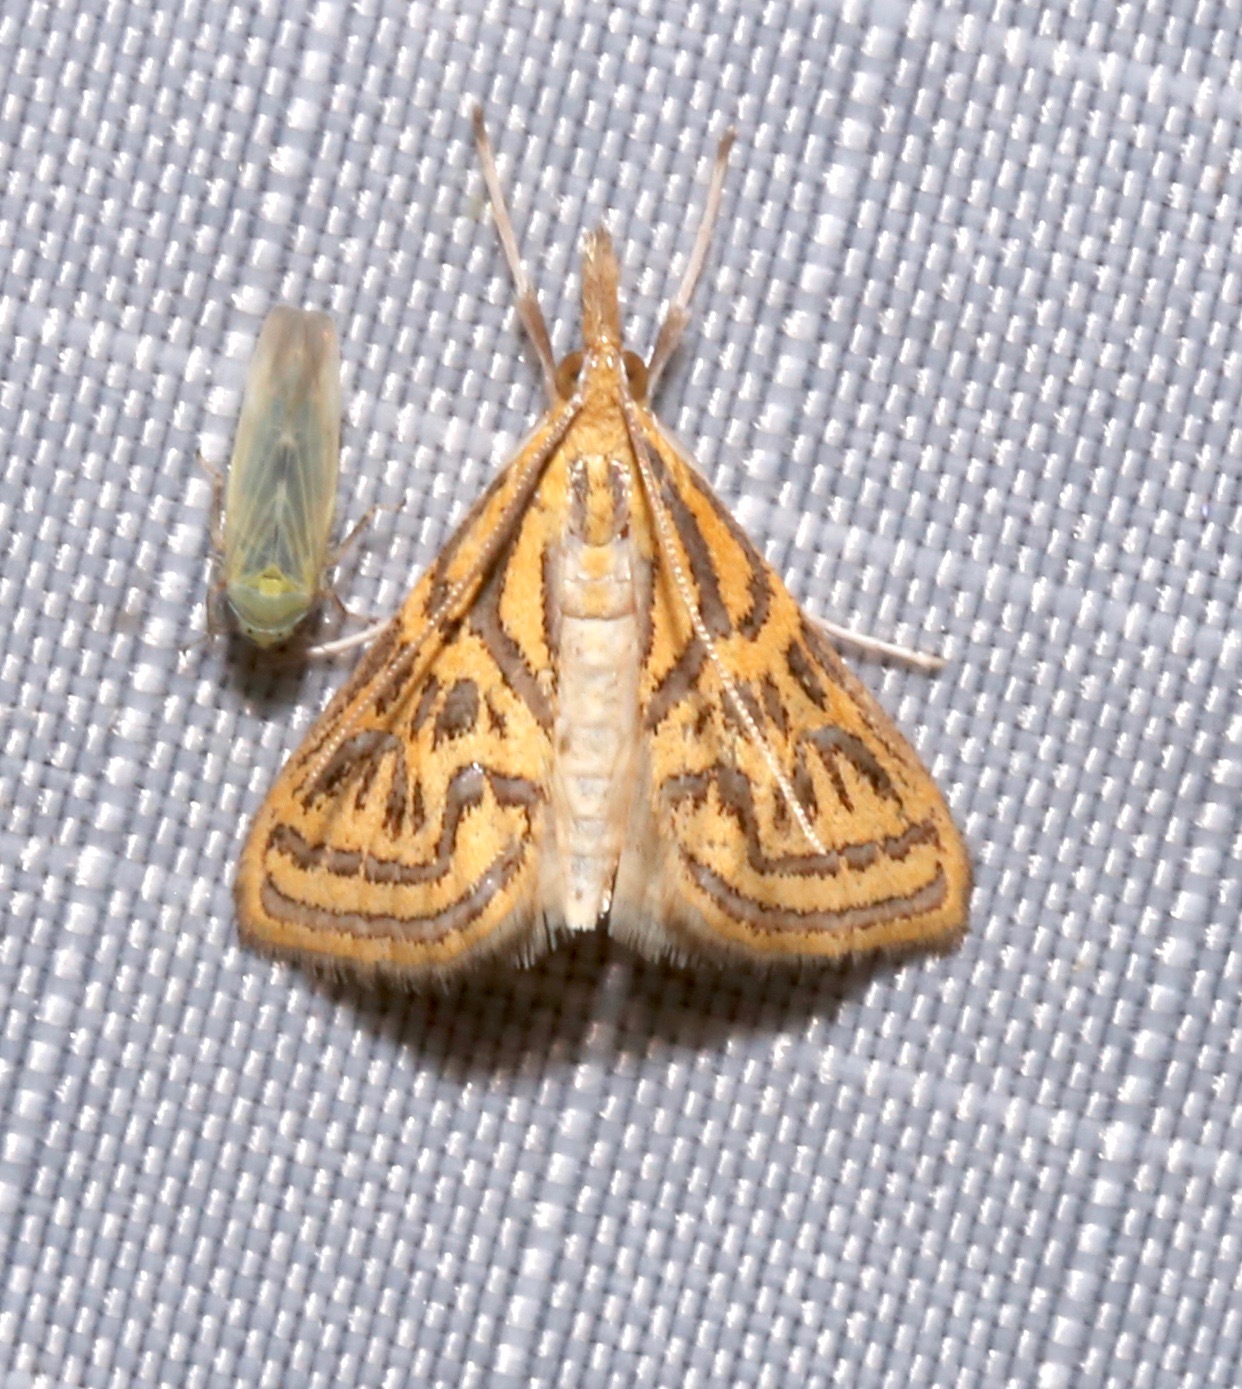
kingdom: Animalia
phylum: Arthropoda
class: Insecta
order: Lepidoptera
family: Crambidae
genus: Daulia
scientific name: Daulia magdalena
